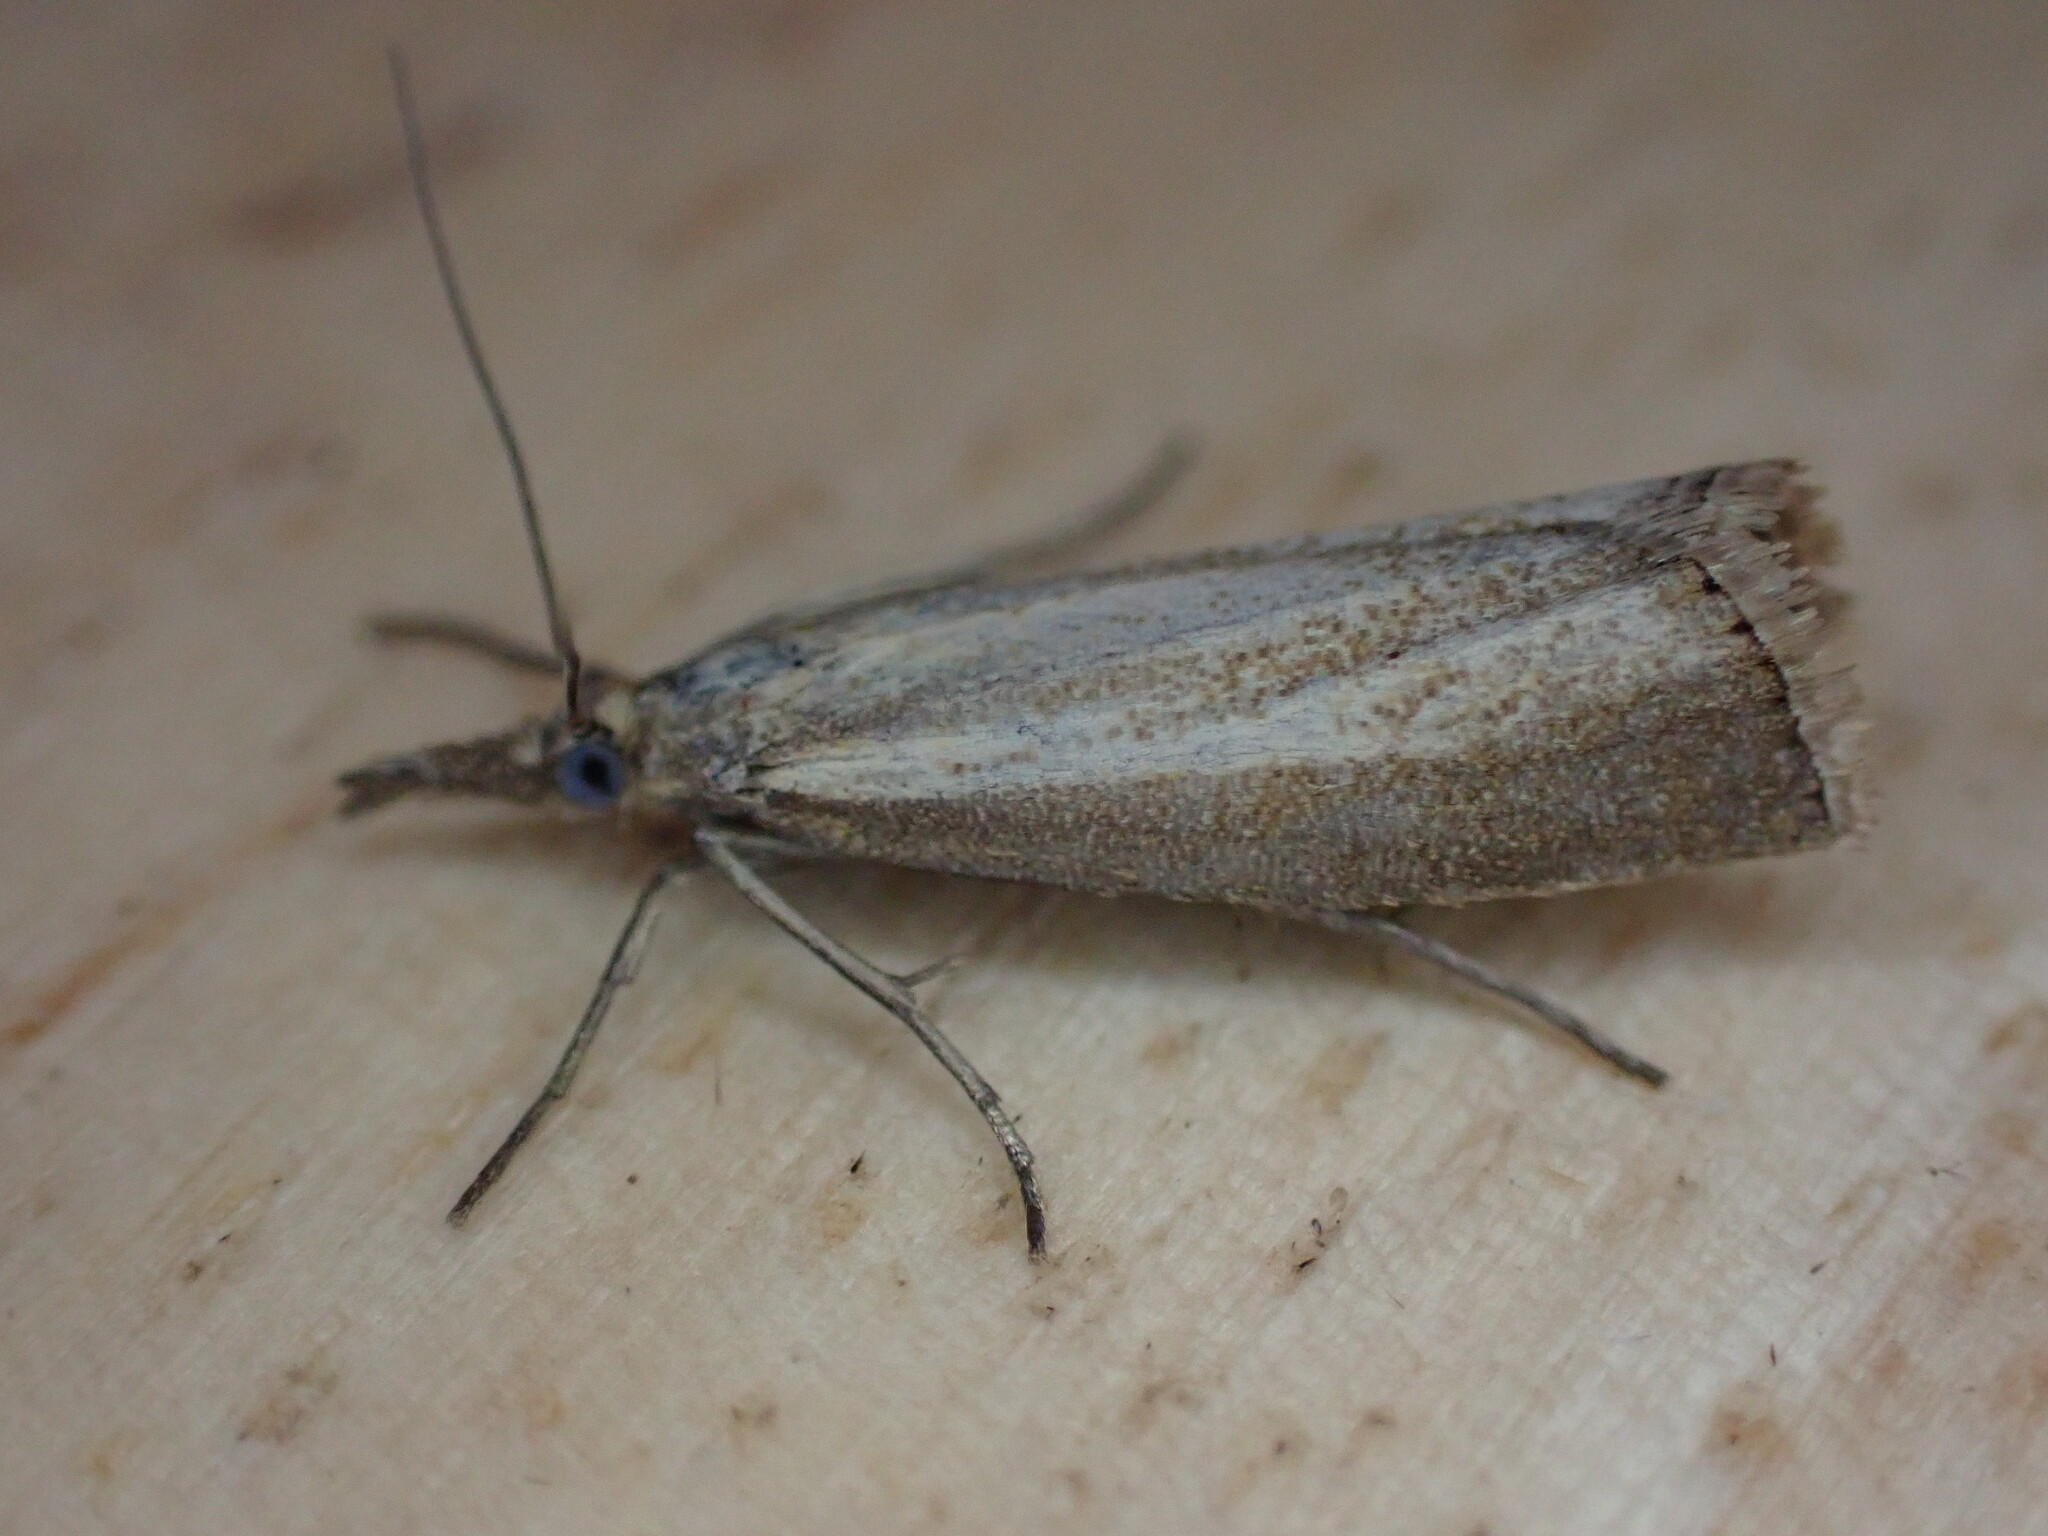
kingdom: Animalia
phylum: Arthropoda
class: Insecta
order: Lepidoptera
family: Crambidae
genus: Agriphila
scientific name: Agriphila straminella
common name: Straw grass-veneer
